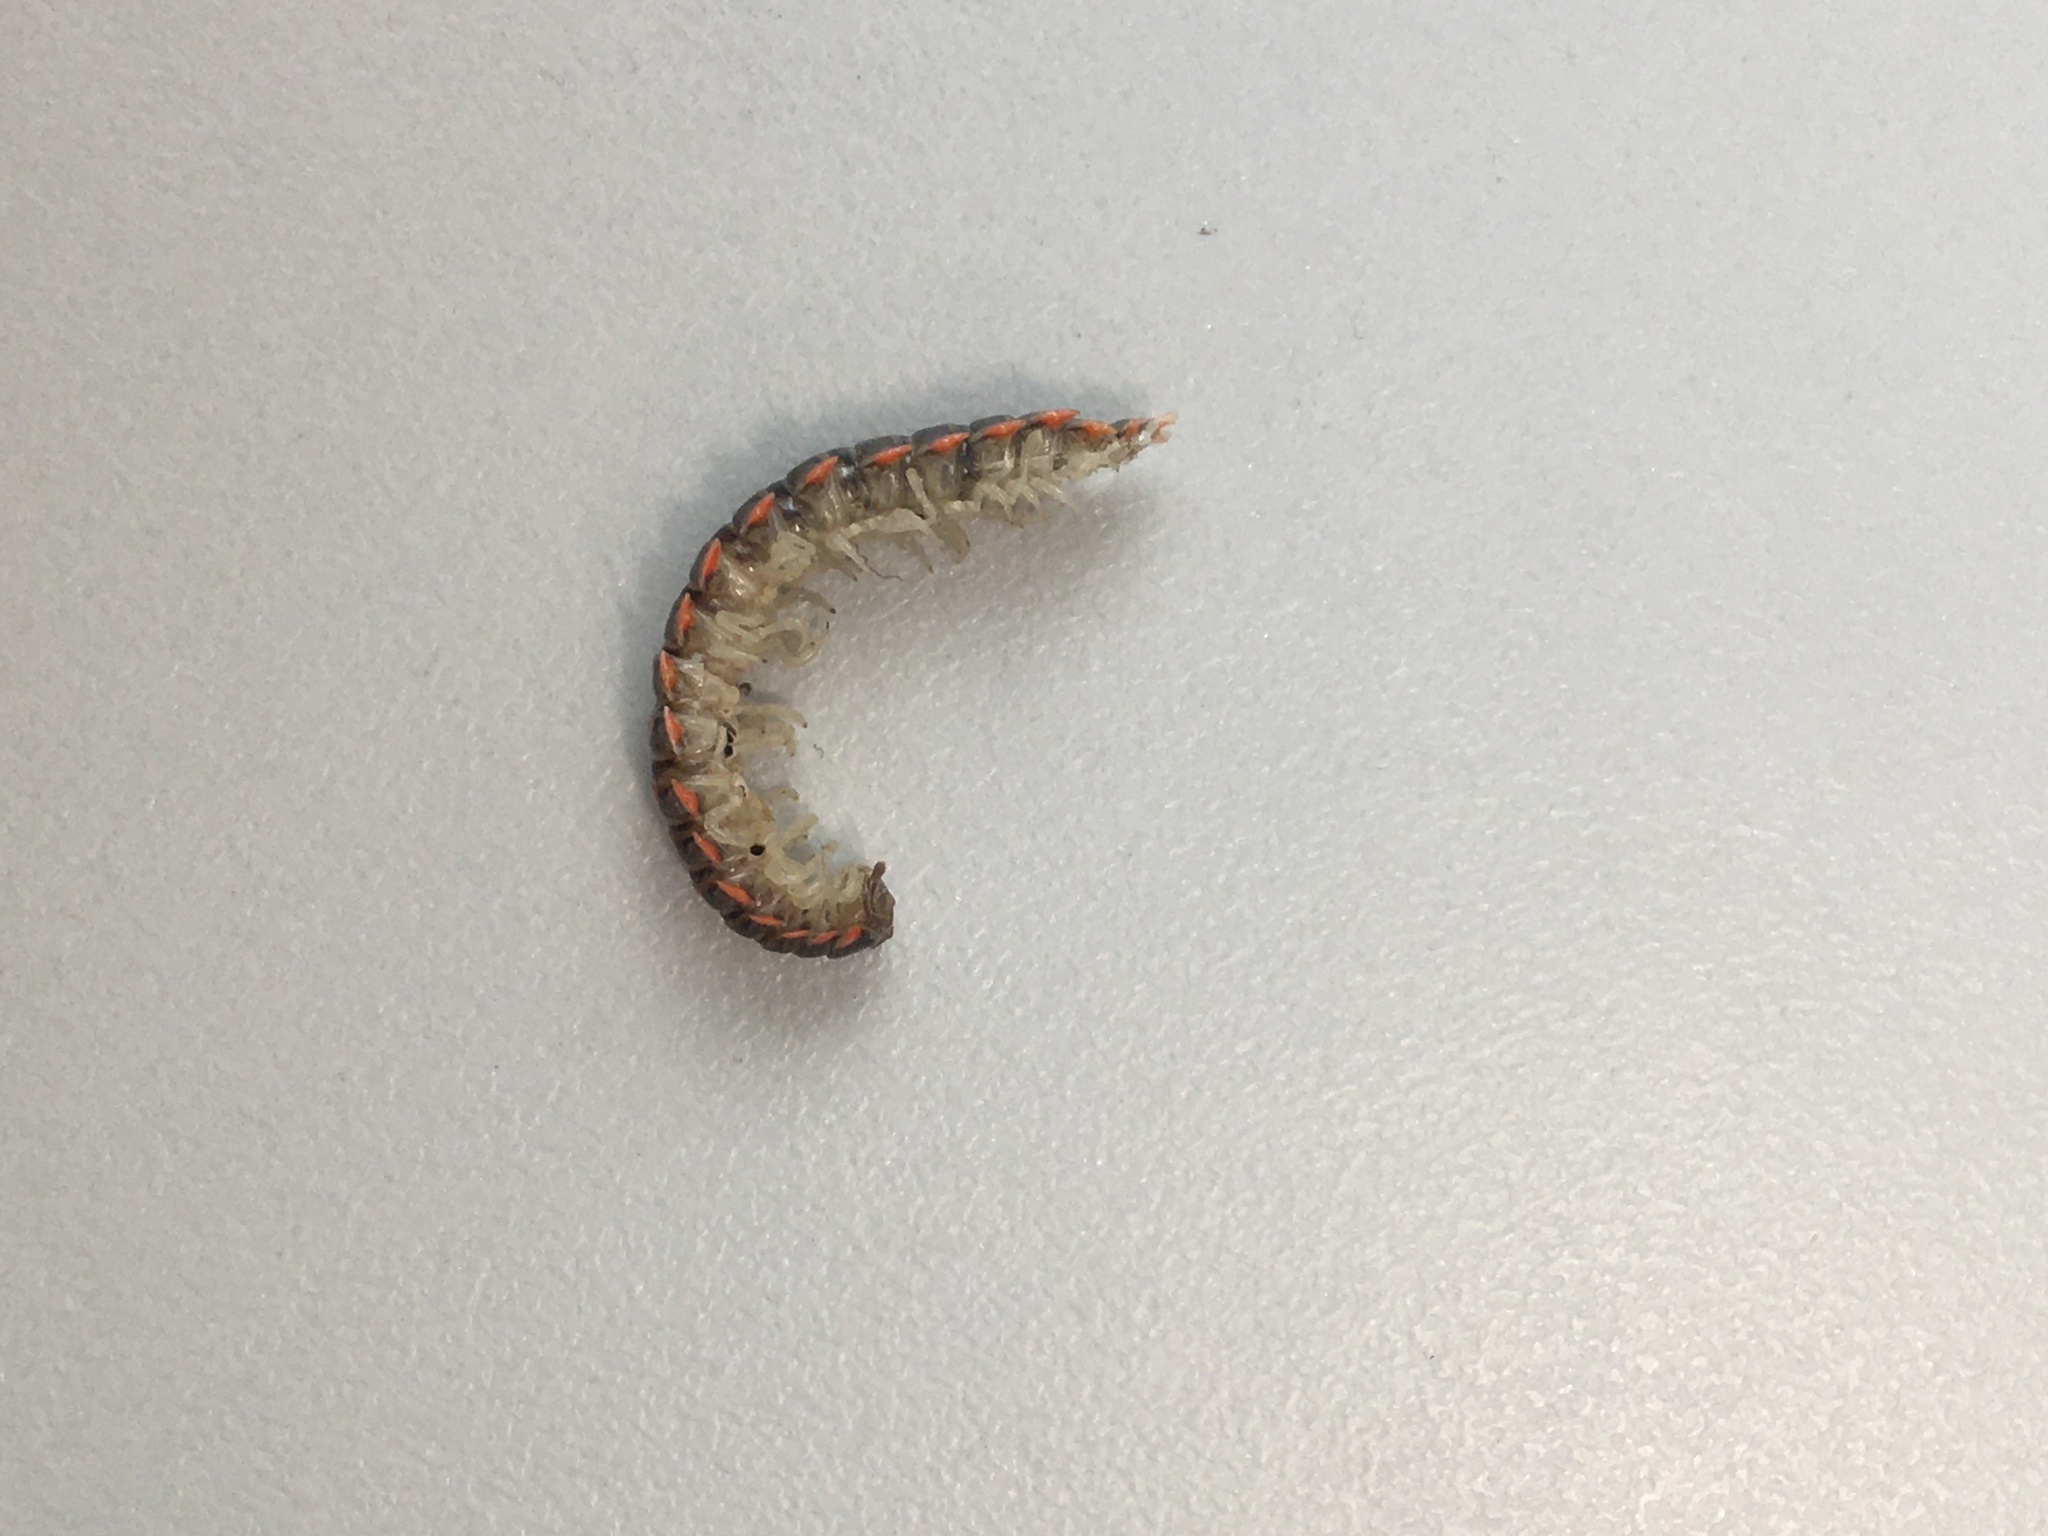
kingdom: Animalia
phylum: Arthropoda
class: Diplopoda
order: Polydesmida
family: Xystodesmidae
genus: Euryurus
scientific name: Euryurus maculatus
